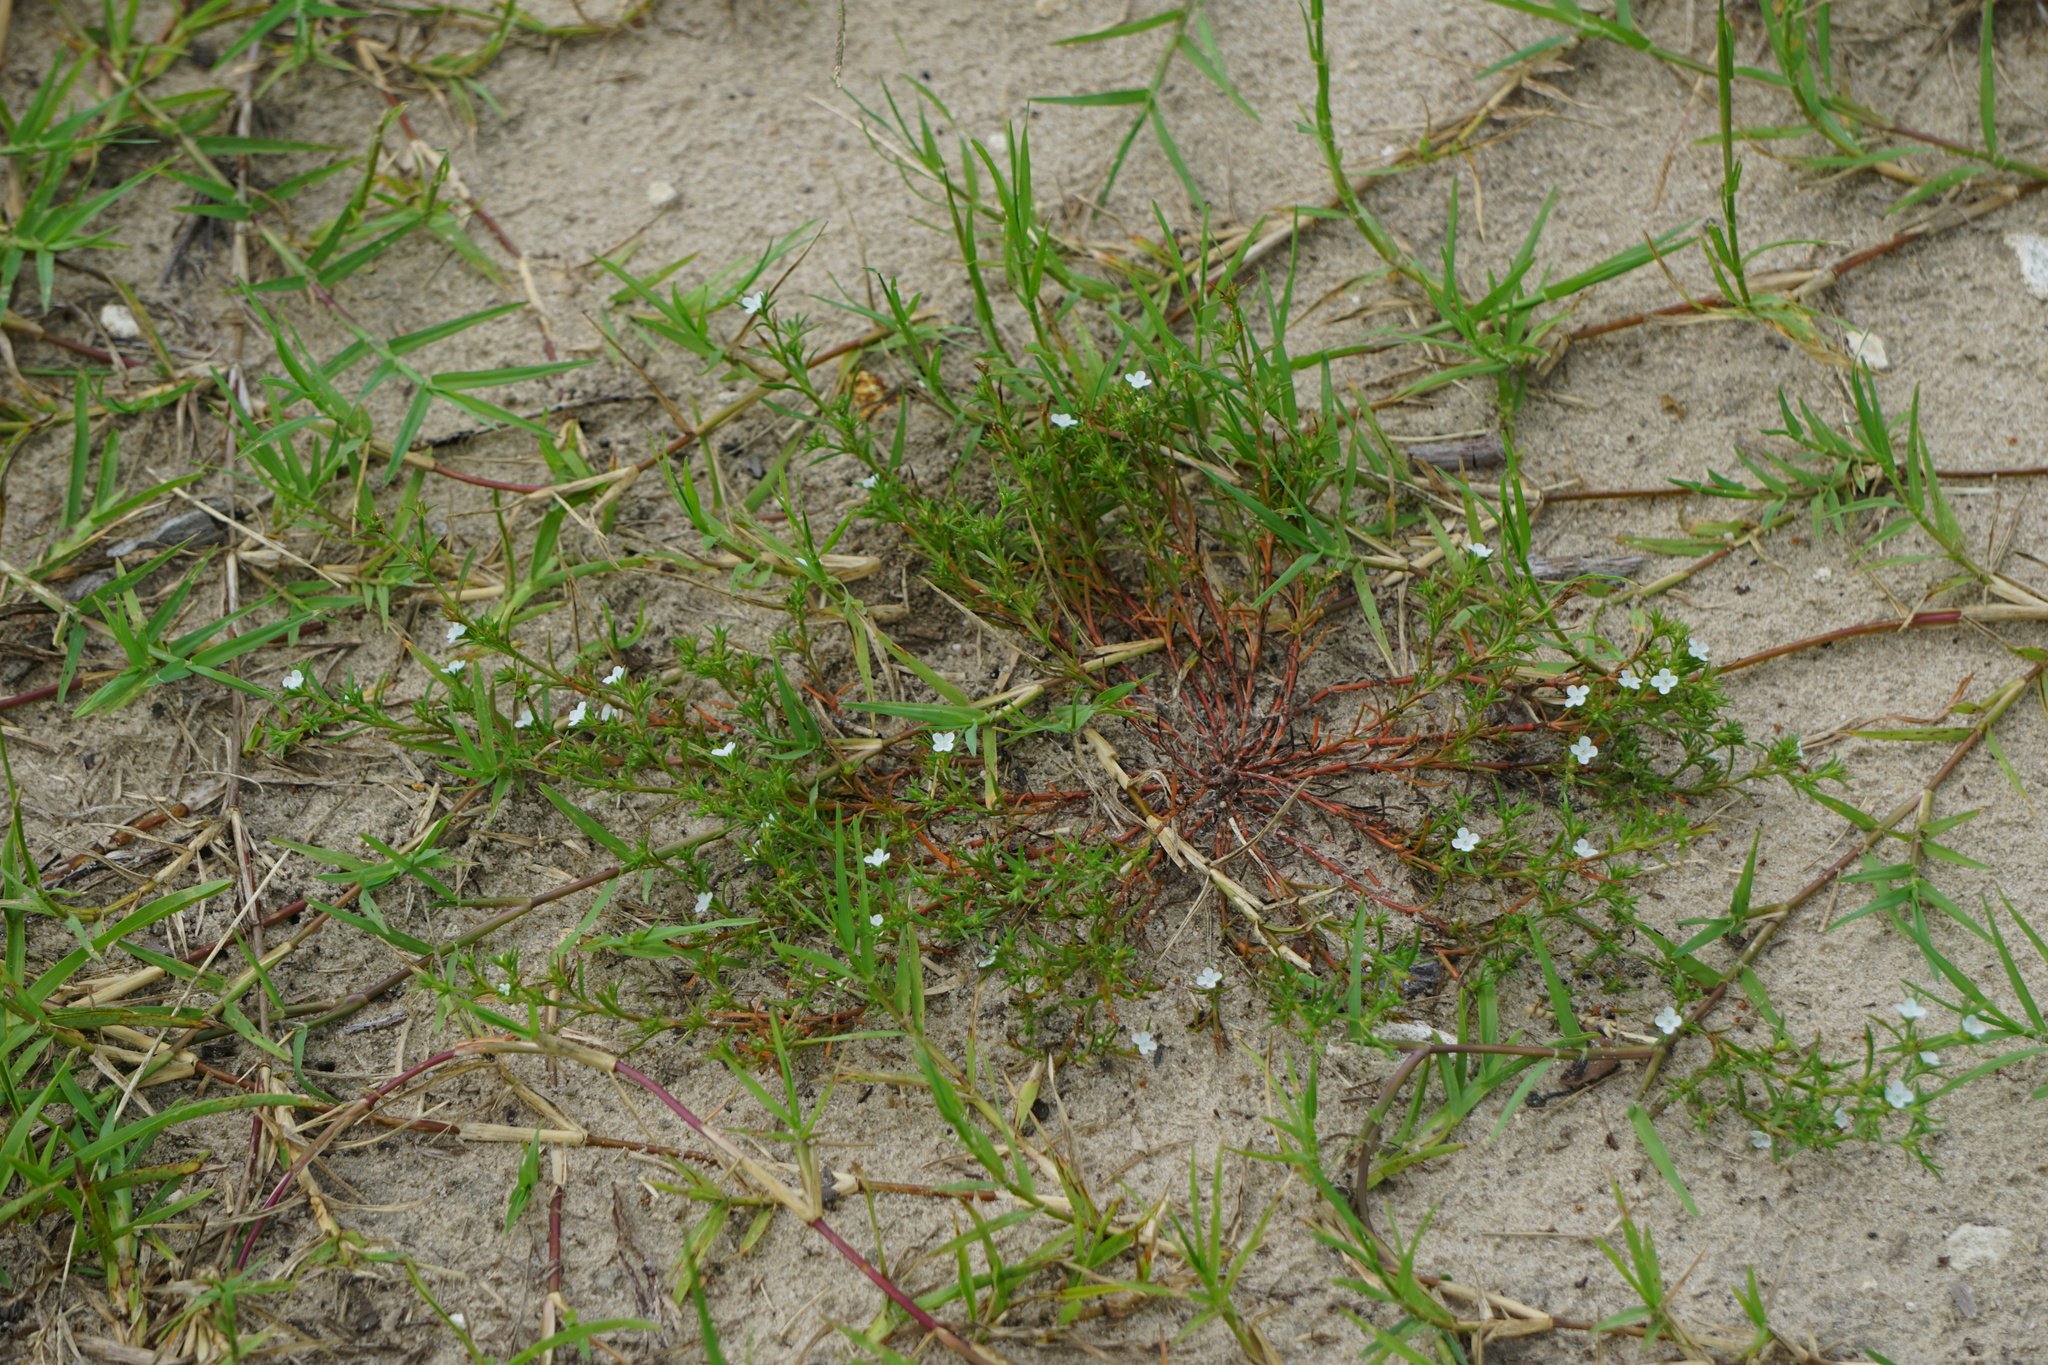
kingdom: Plantae
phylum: Tracheophyta
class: Magnoliopsida
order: Lamiales
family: Tetrachondraceae
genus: Polypremum
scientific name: Polypremum procumbens
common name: Juniper-leaf
